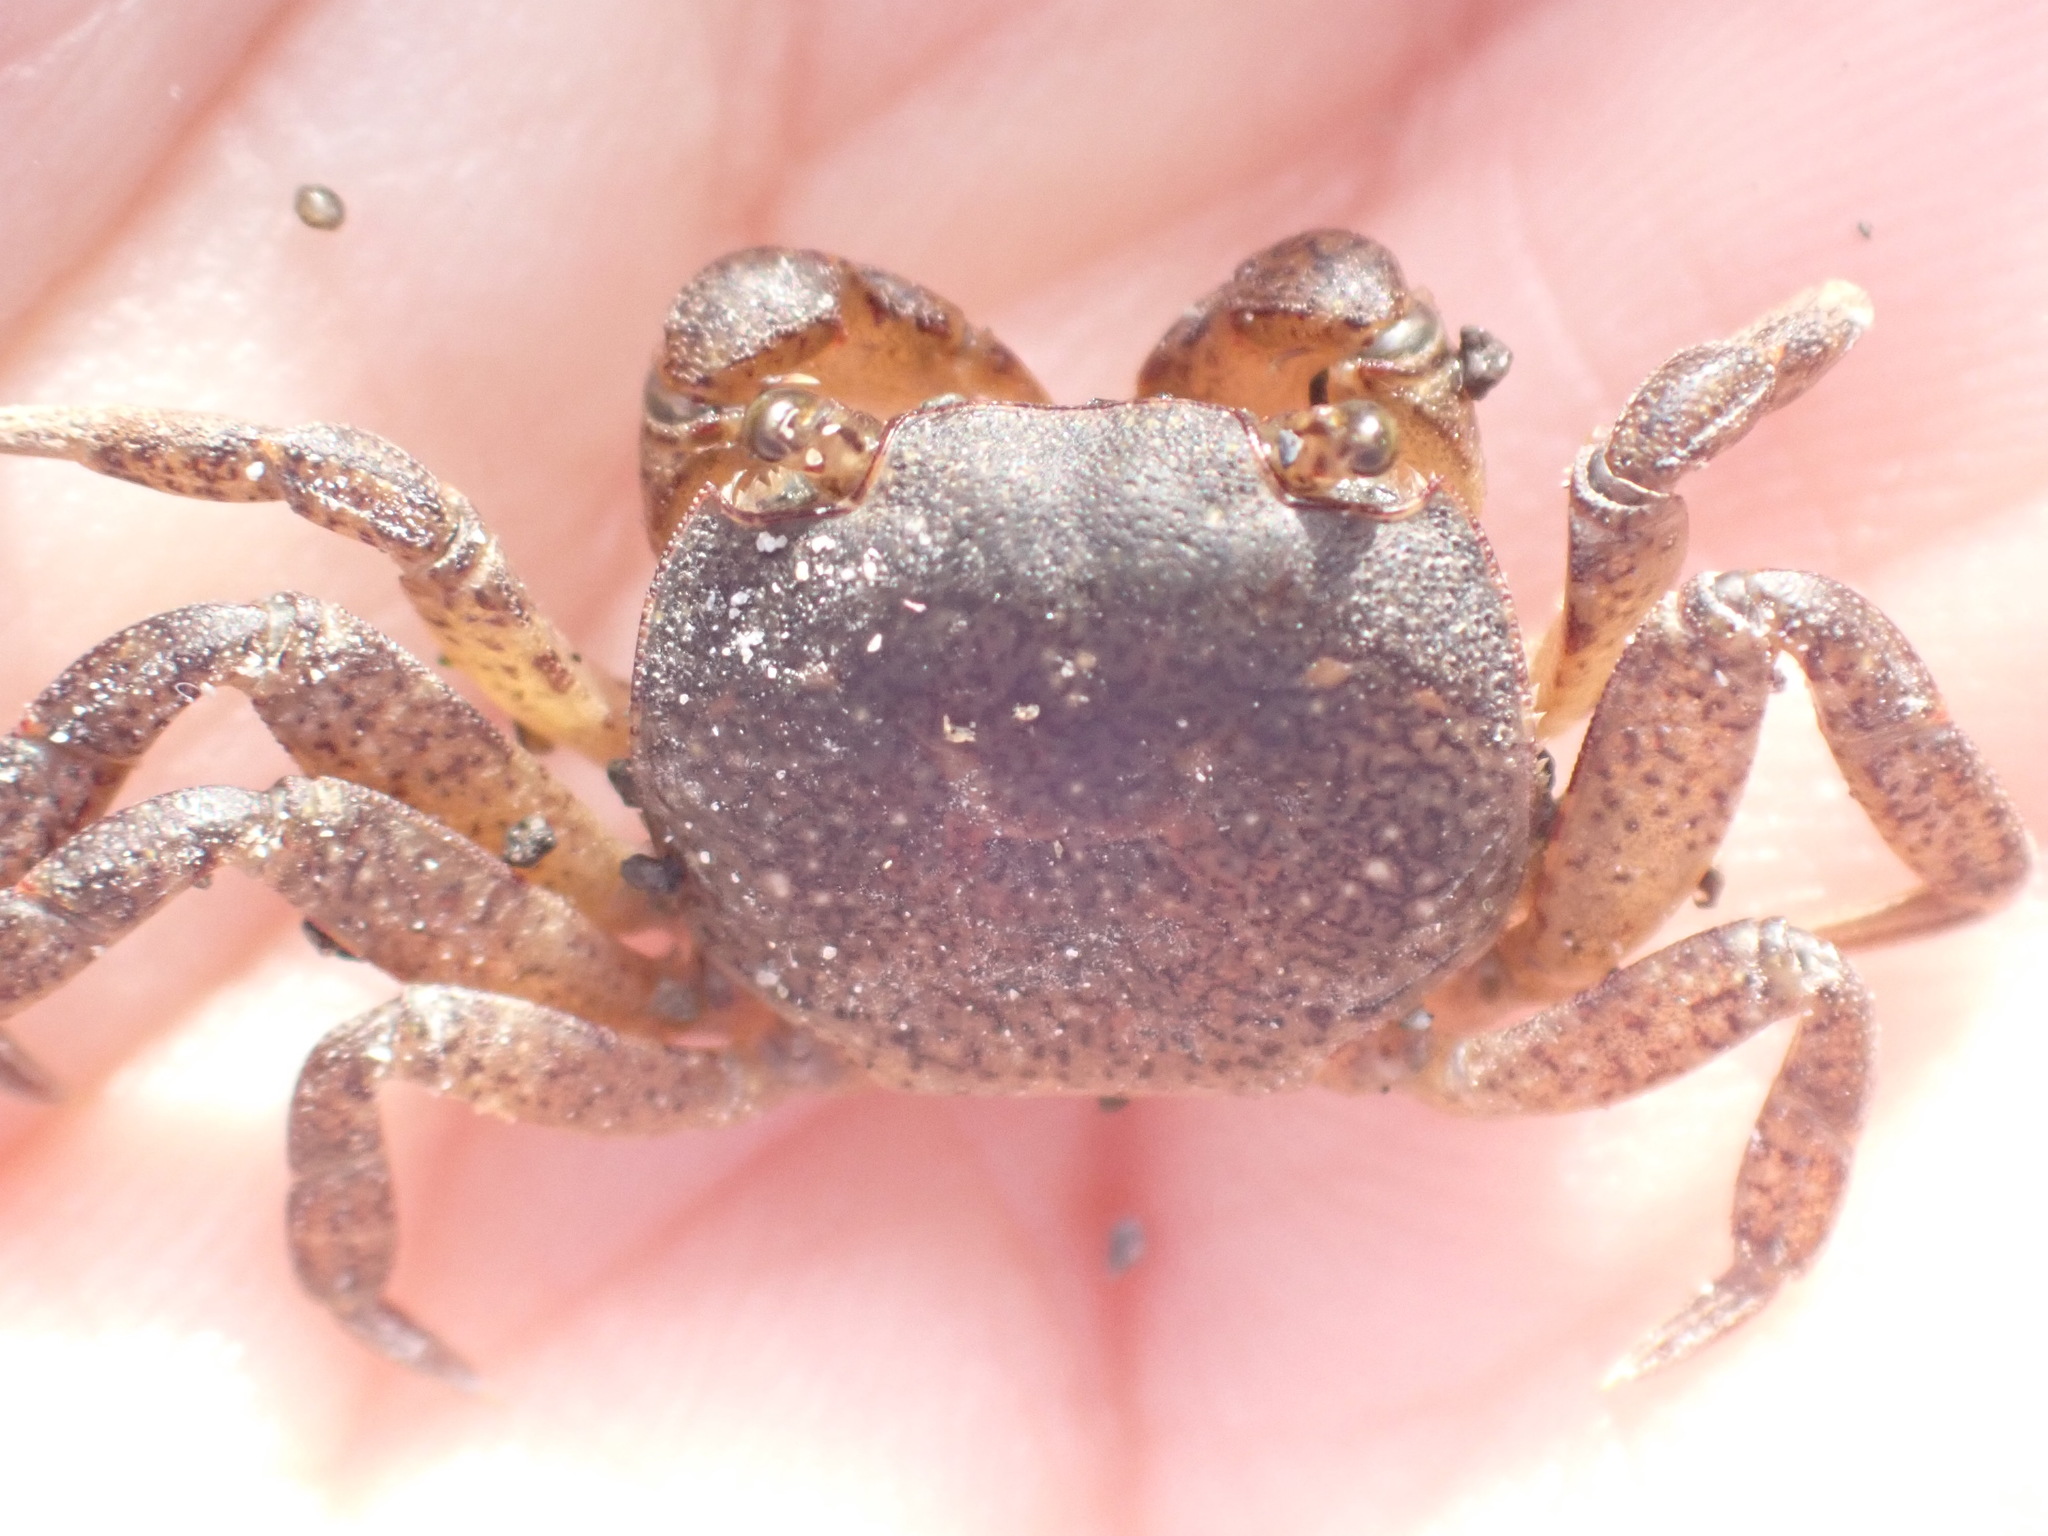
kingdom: Animalia
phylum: Arthropoda
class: Malacostraca
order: Decapoda
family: Varunidae
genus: Cyclograpsus
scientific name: Cyclograpsus lavauxi
